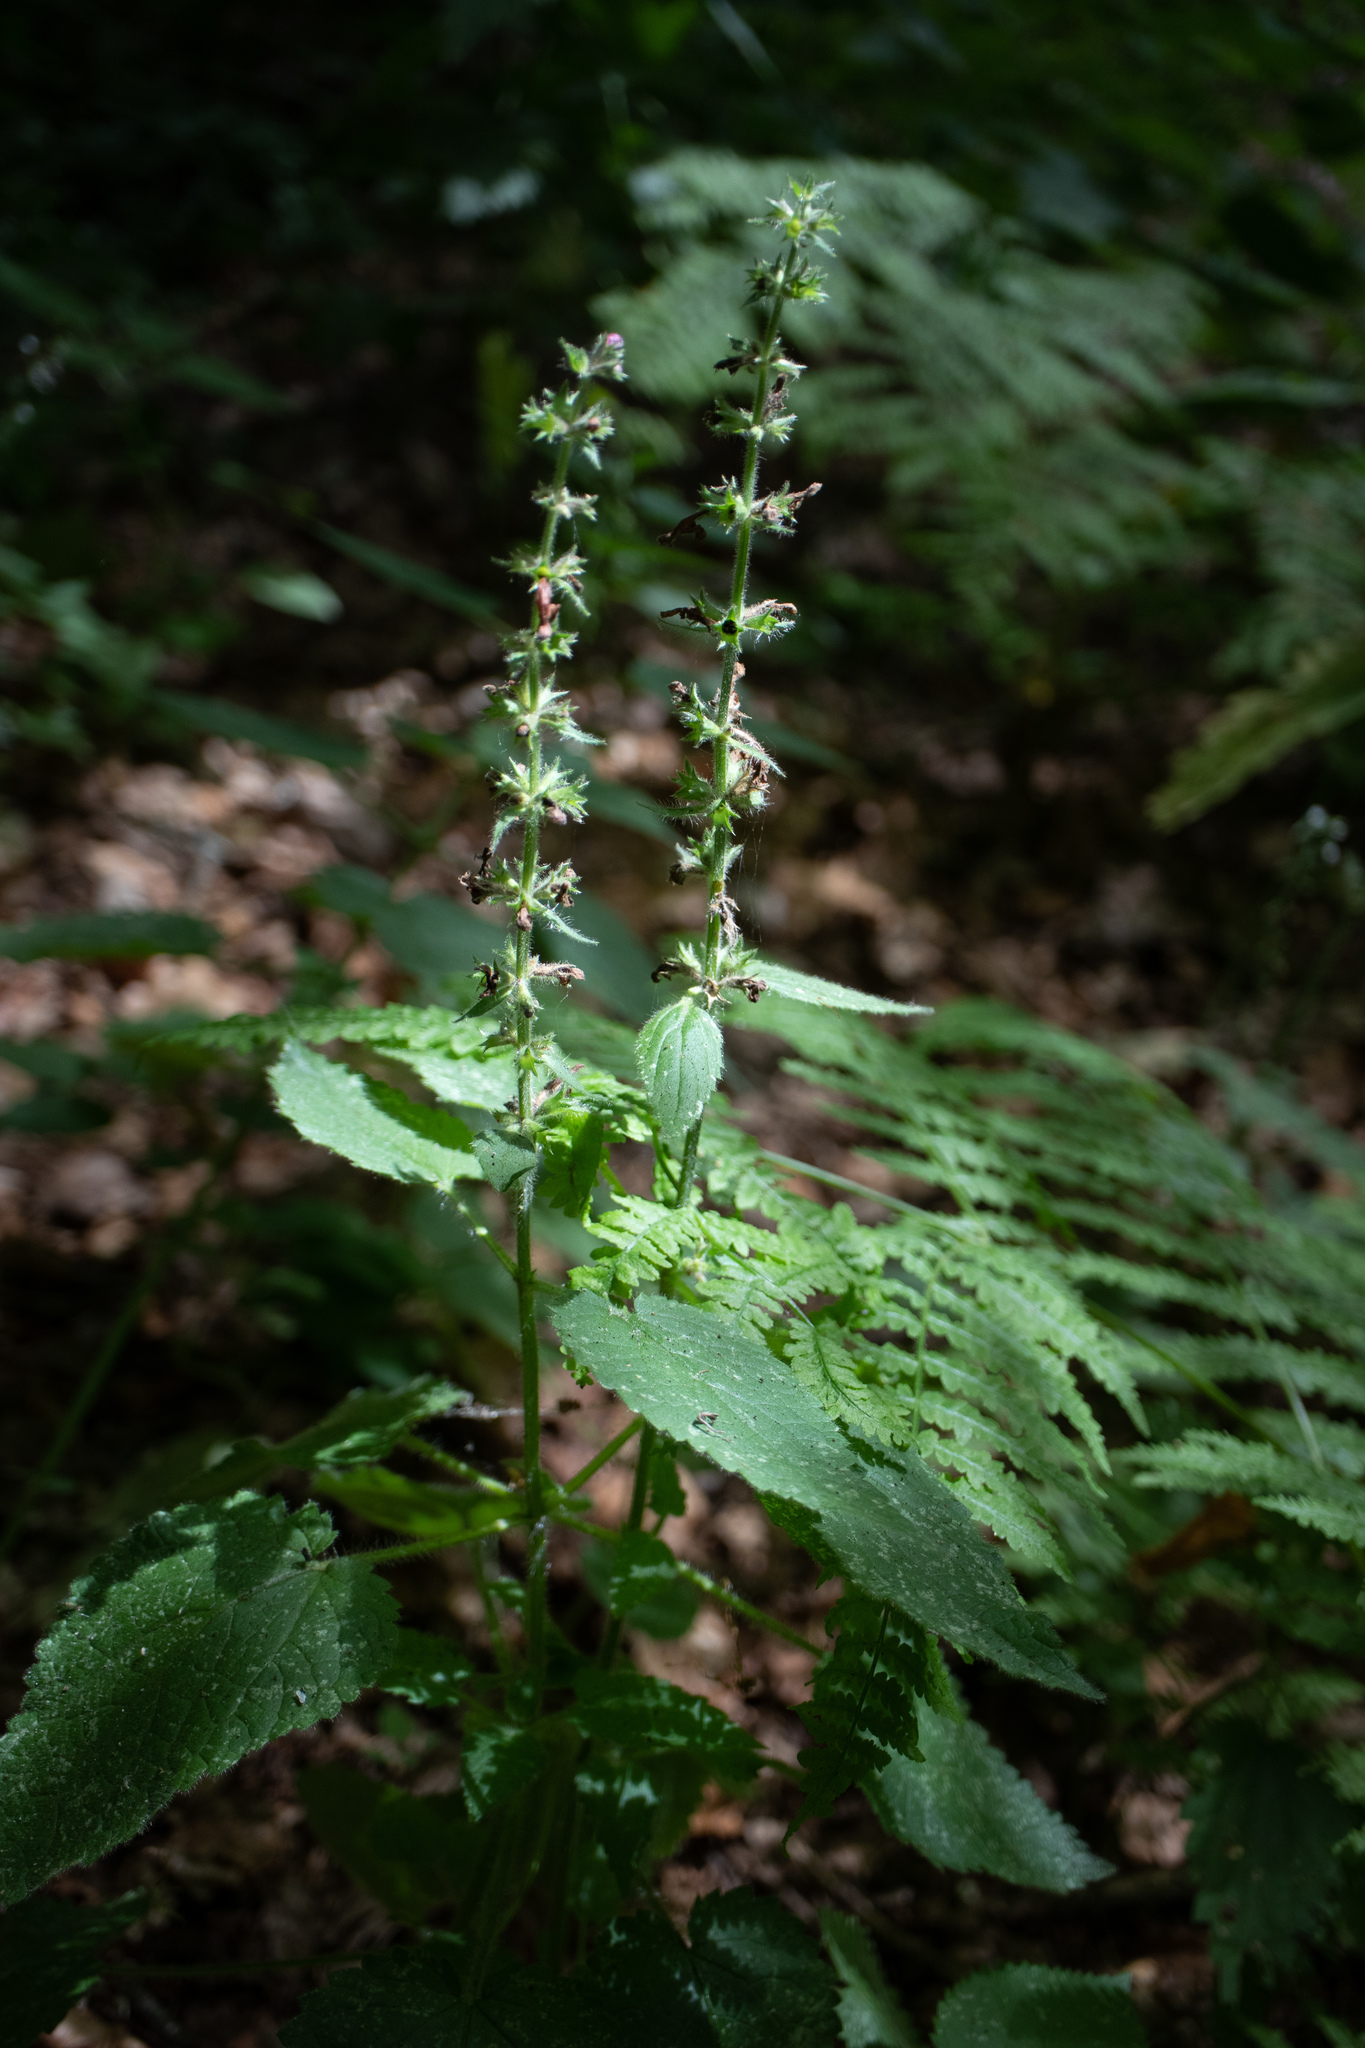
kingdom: Plantae
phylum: Tracheophyta
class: Magnoliopsida
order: Lamiales
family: Lamiaceae
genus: Stachys
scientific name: Stachys sylvatica
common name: Hedge woundwort
